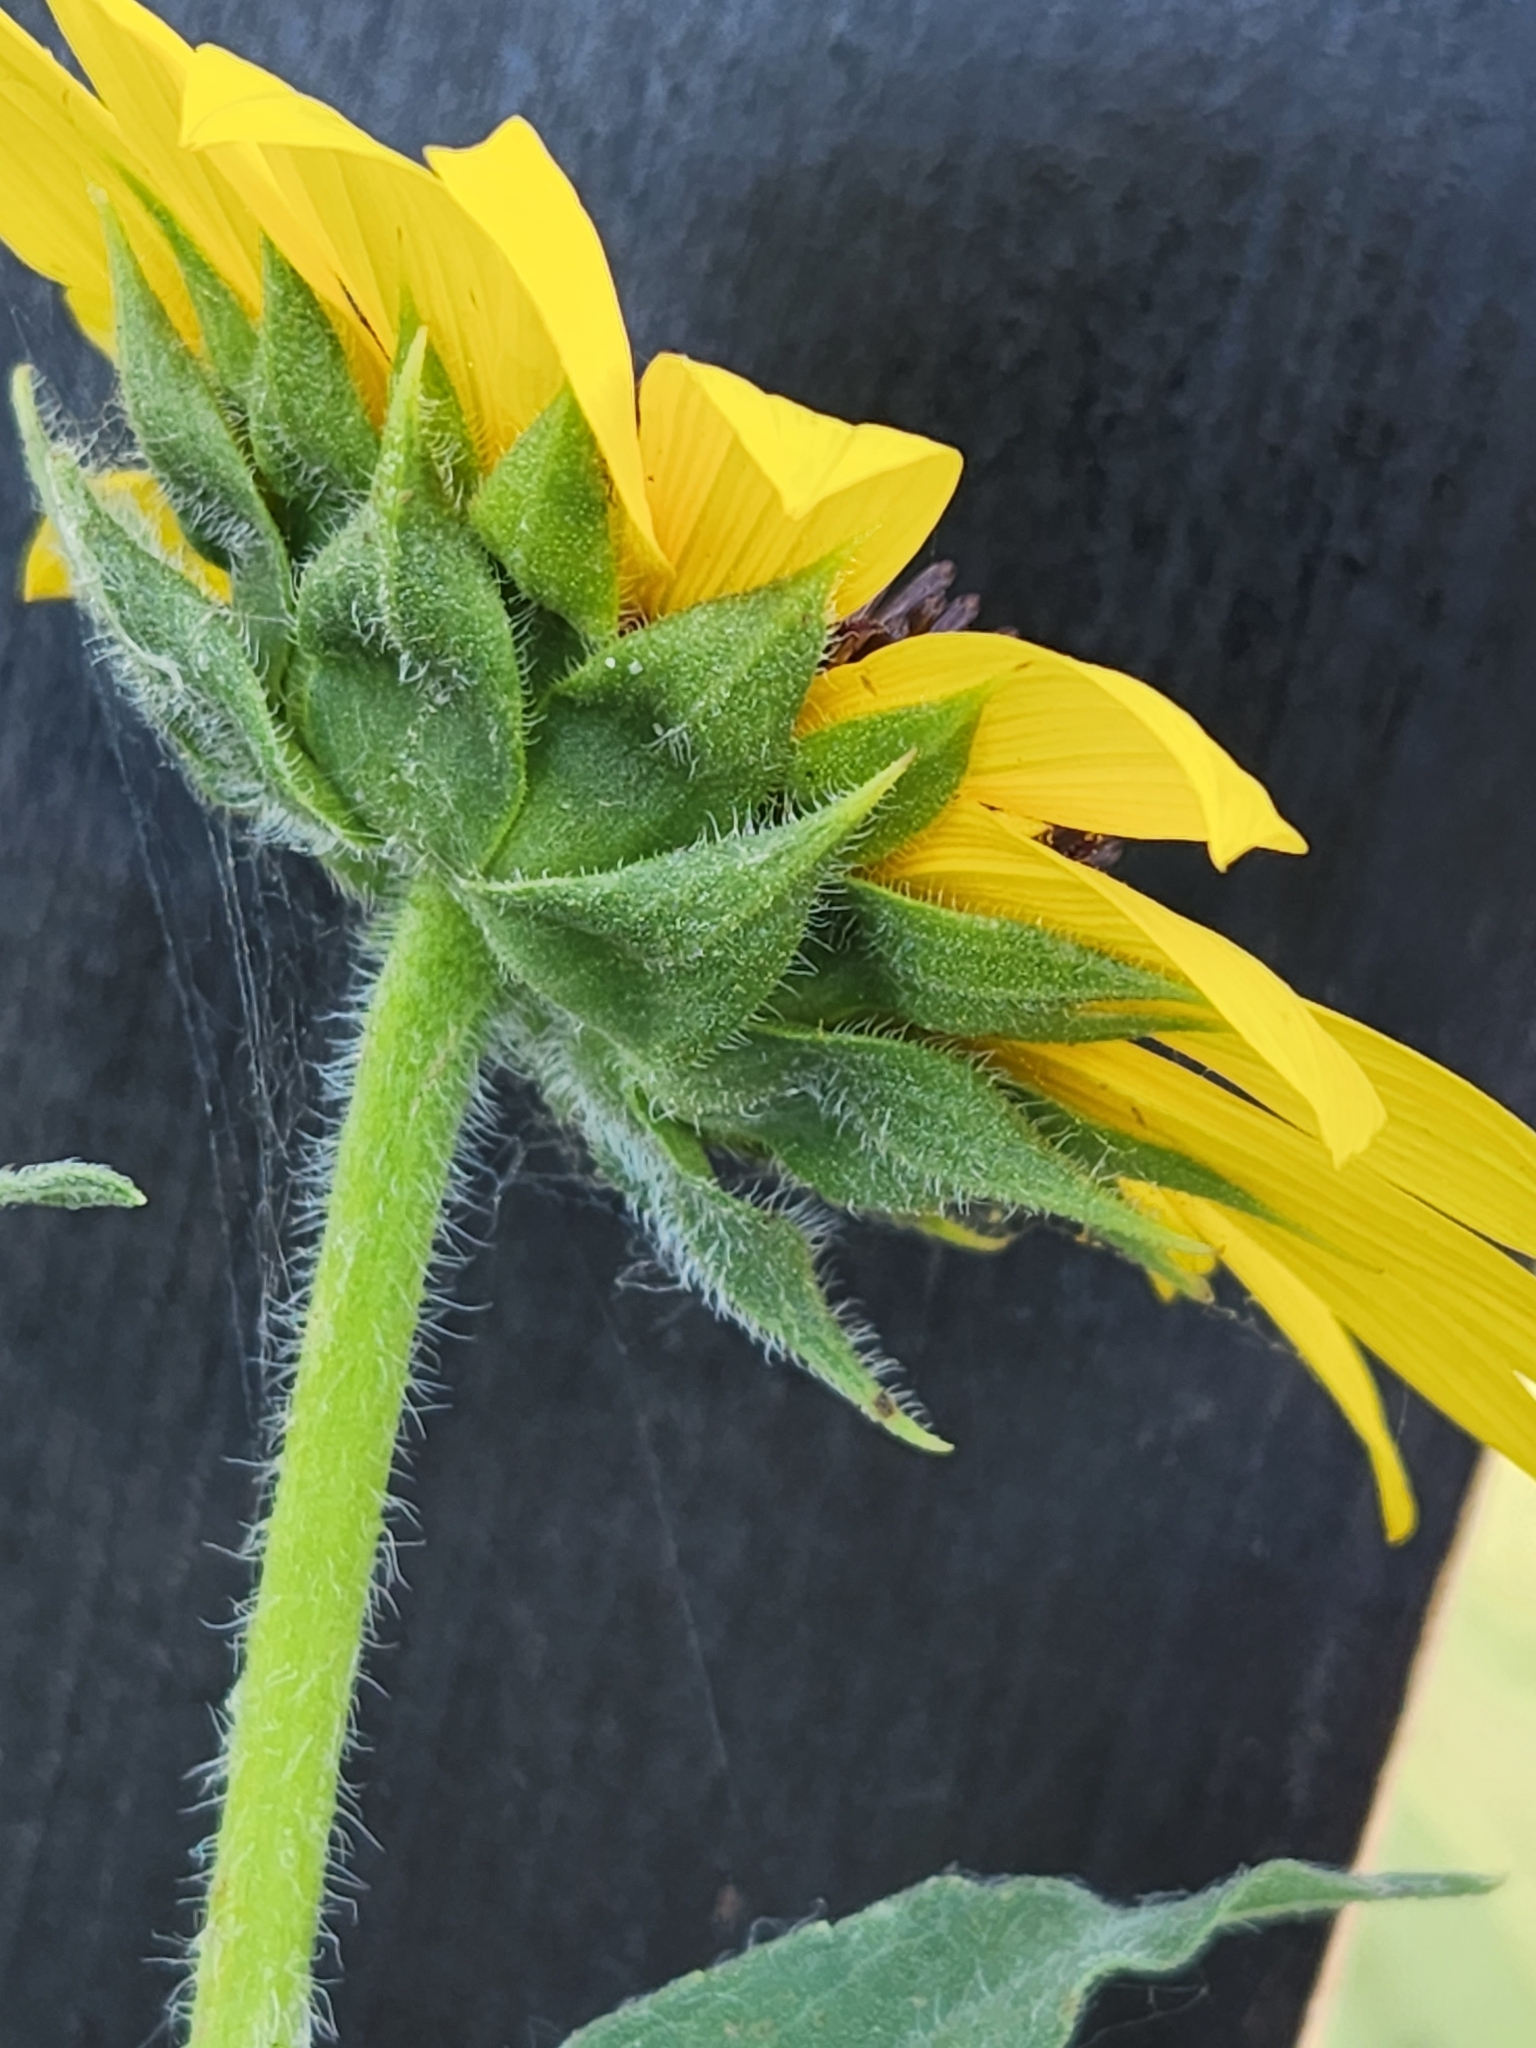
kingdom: Plantae
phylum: Tracheophyta
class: Magnoliopsida
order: Asterales
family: Asteraceae
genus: Helianthus
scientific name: Helianthus annuus
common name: Sunflower
